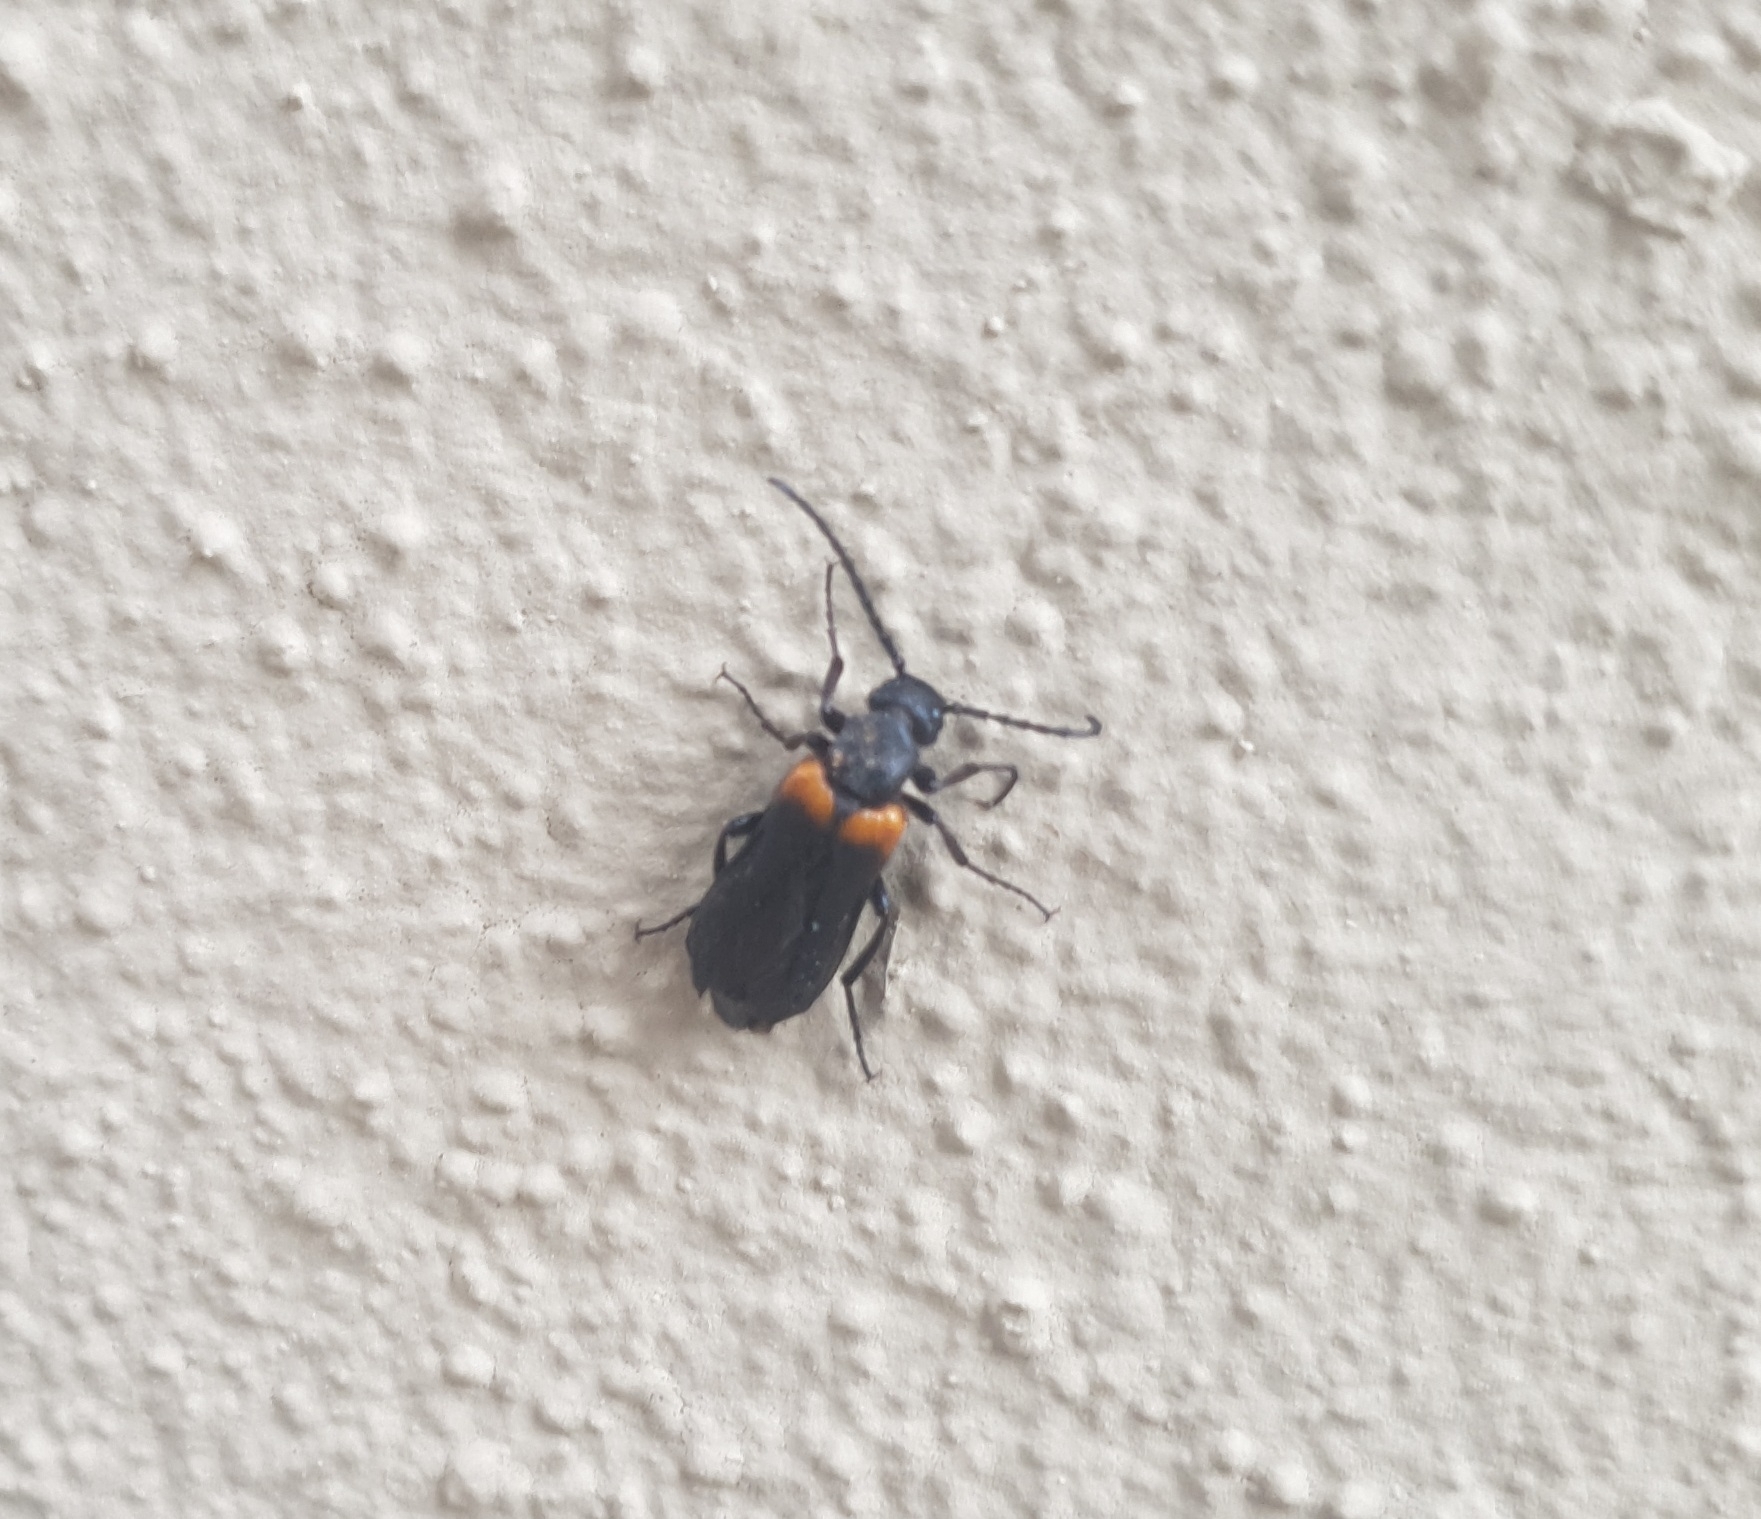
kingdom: Animalia
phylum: Arthropoda
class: Insecta
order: Coleoptera
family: Meloidae
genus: Sitaris
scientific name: Sitaris muralis
